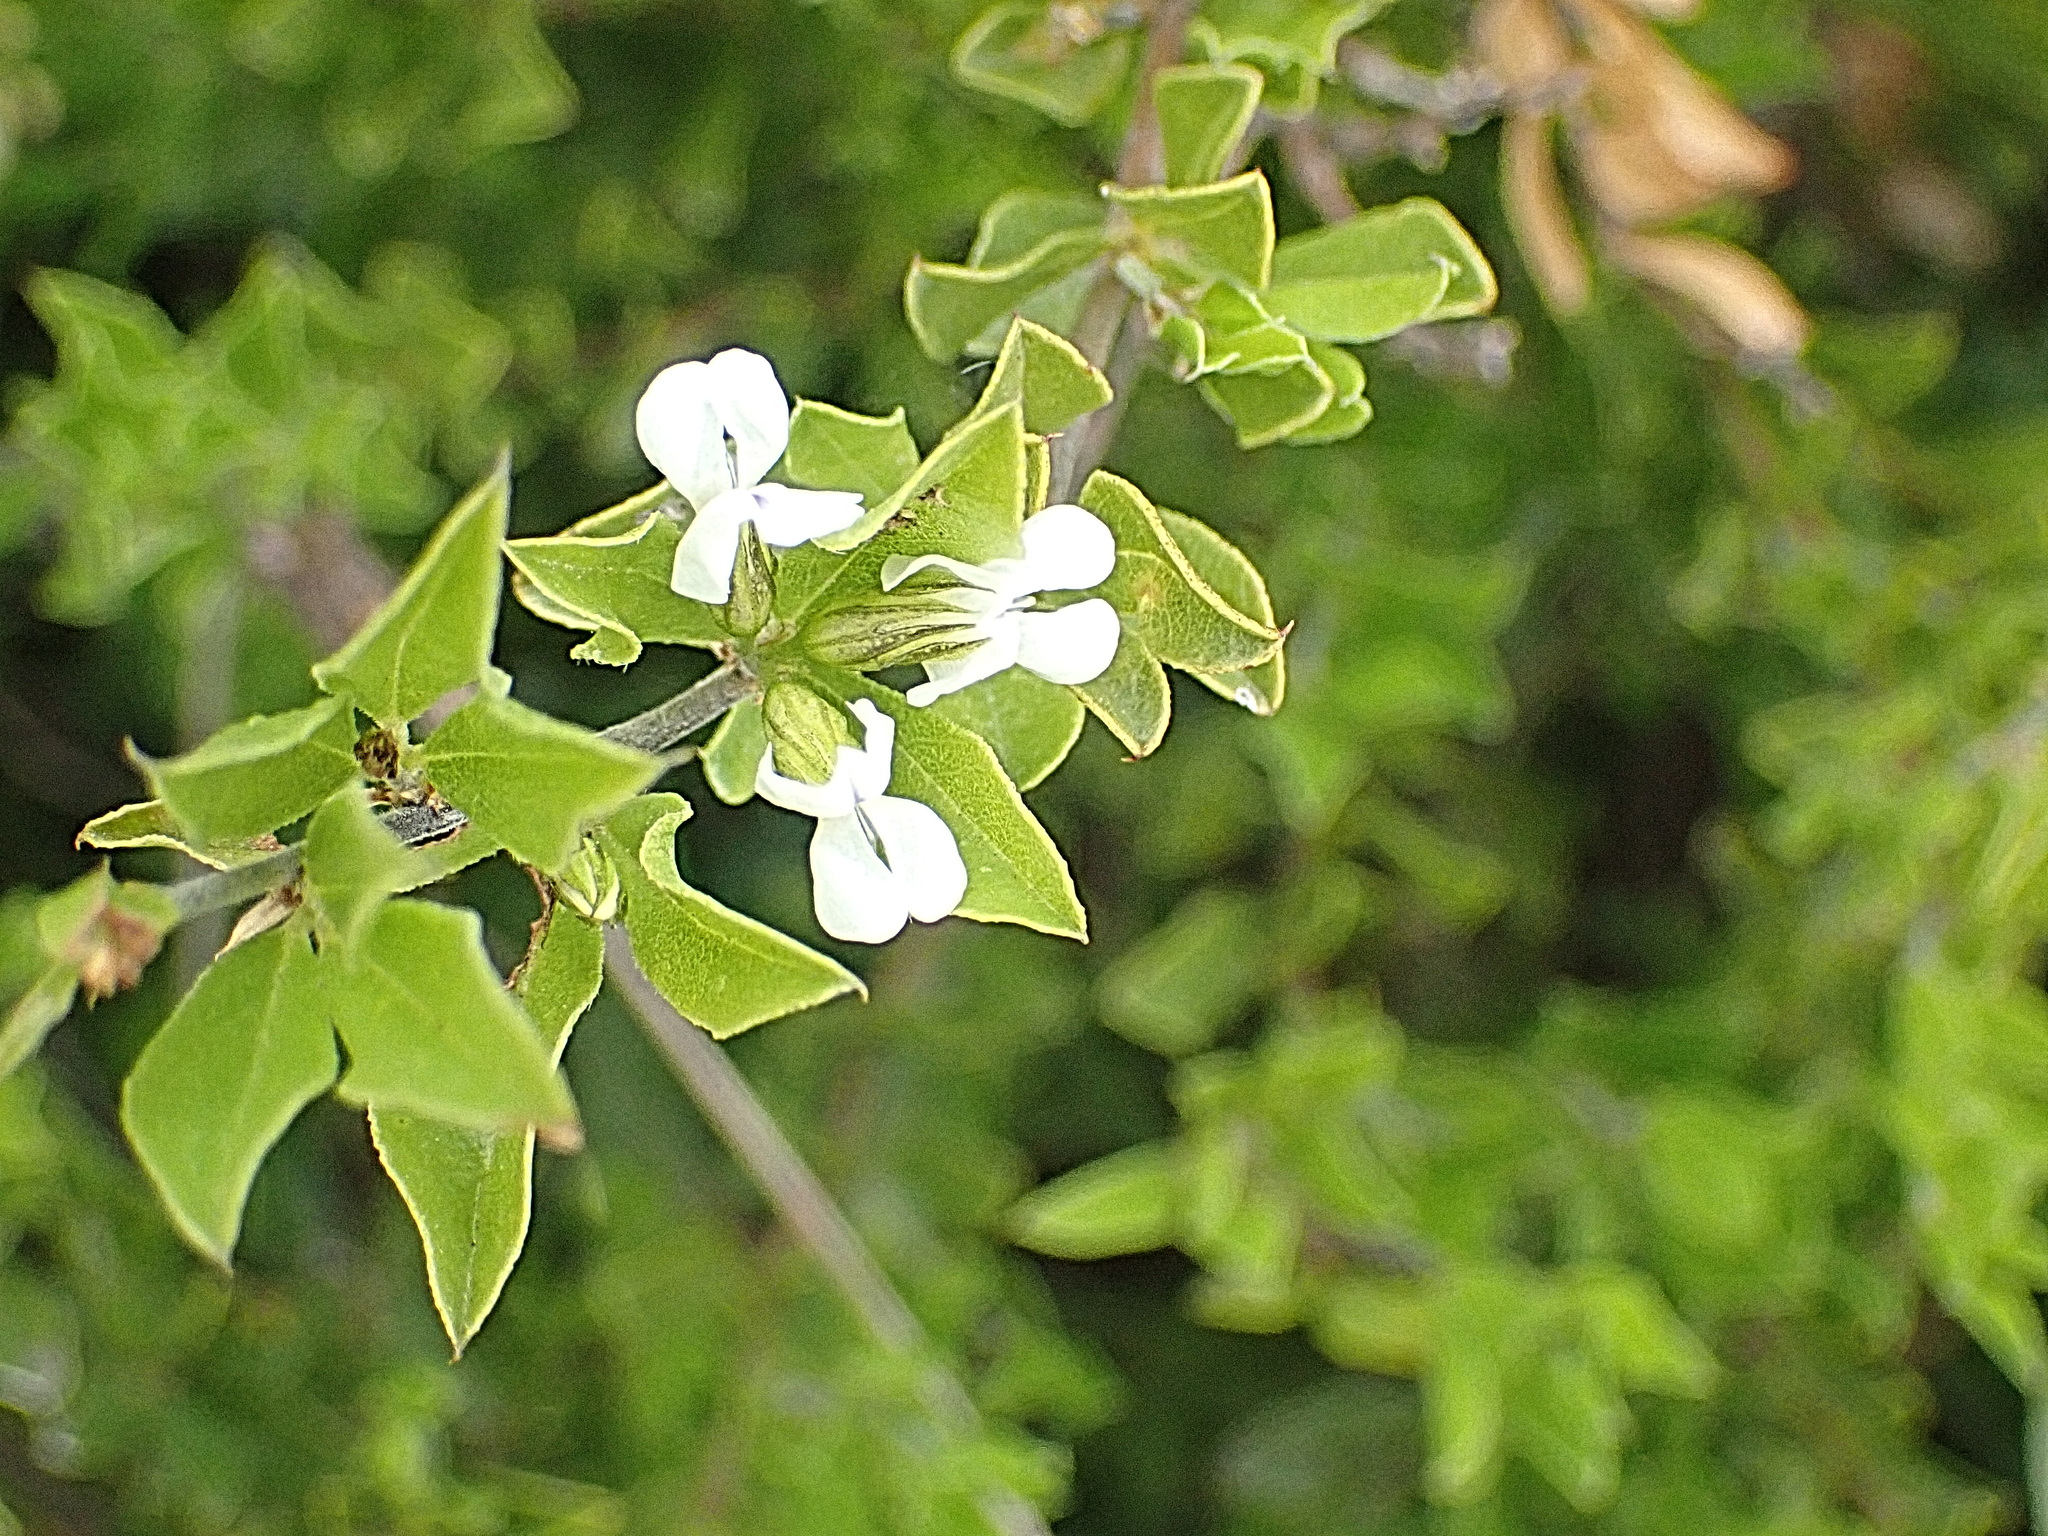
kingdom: Plantae
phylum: Tracheophyta
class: Magnoliopsida
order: Fabales
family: Fabaceae
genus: Psoralea
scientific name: Psoralea heterosepala
